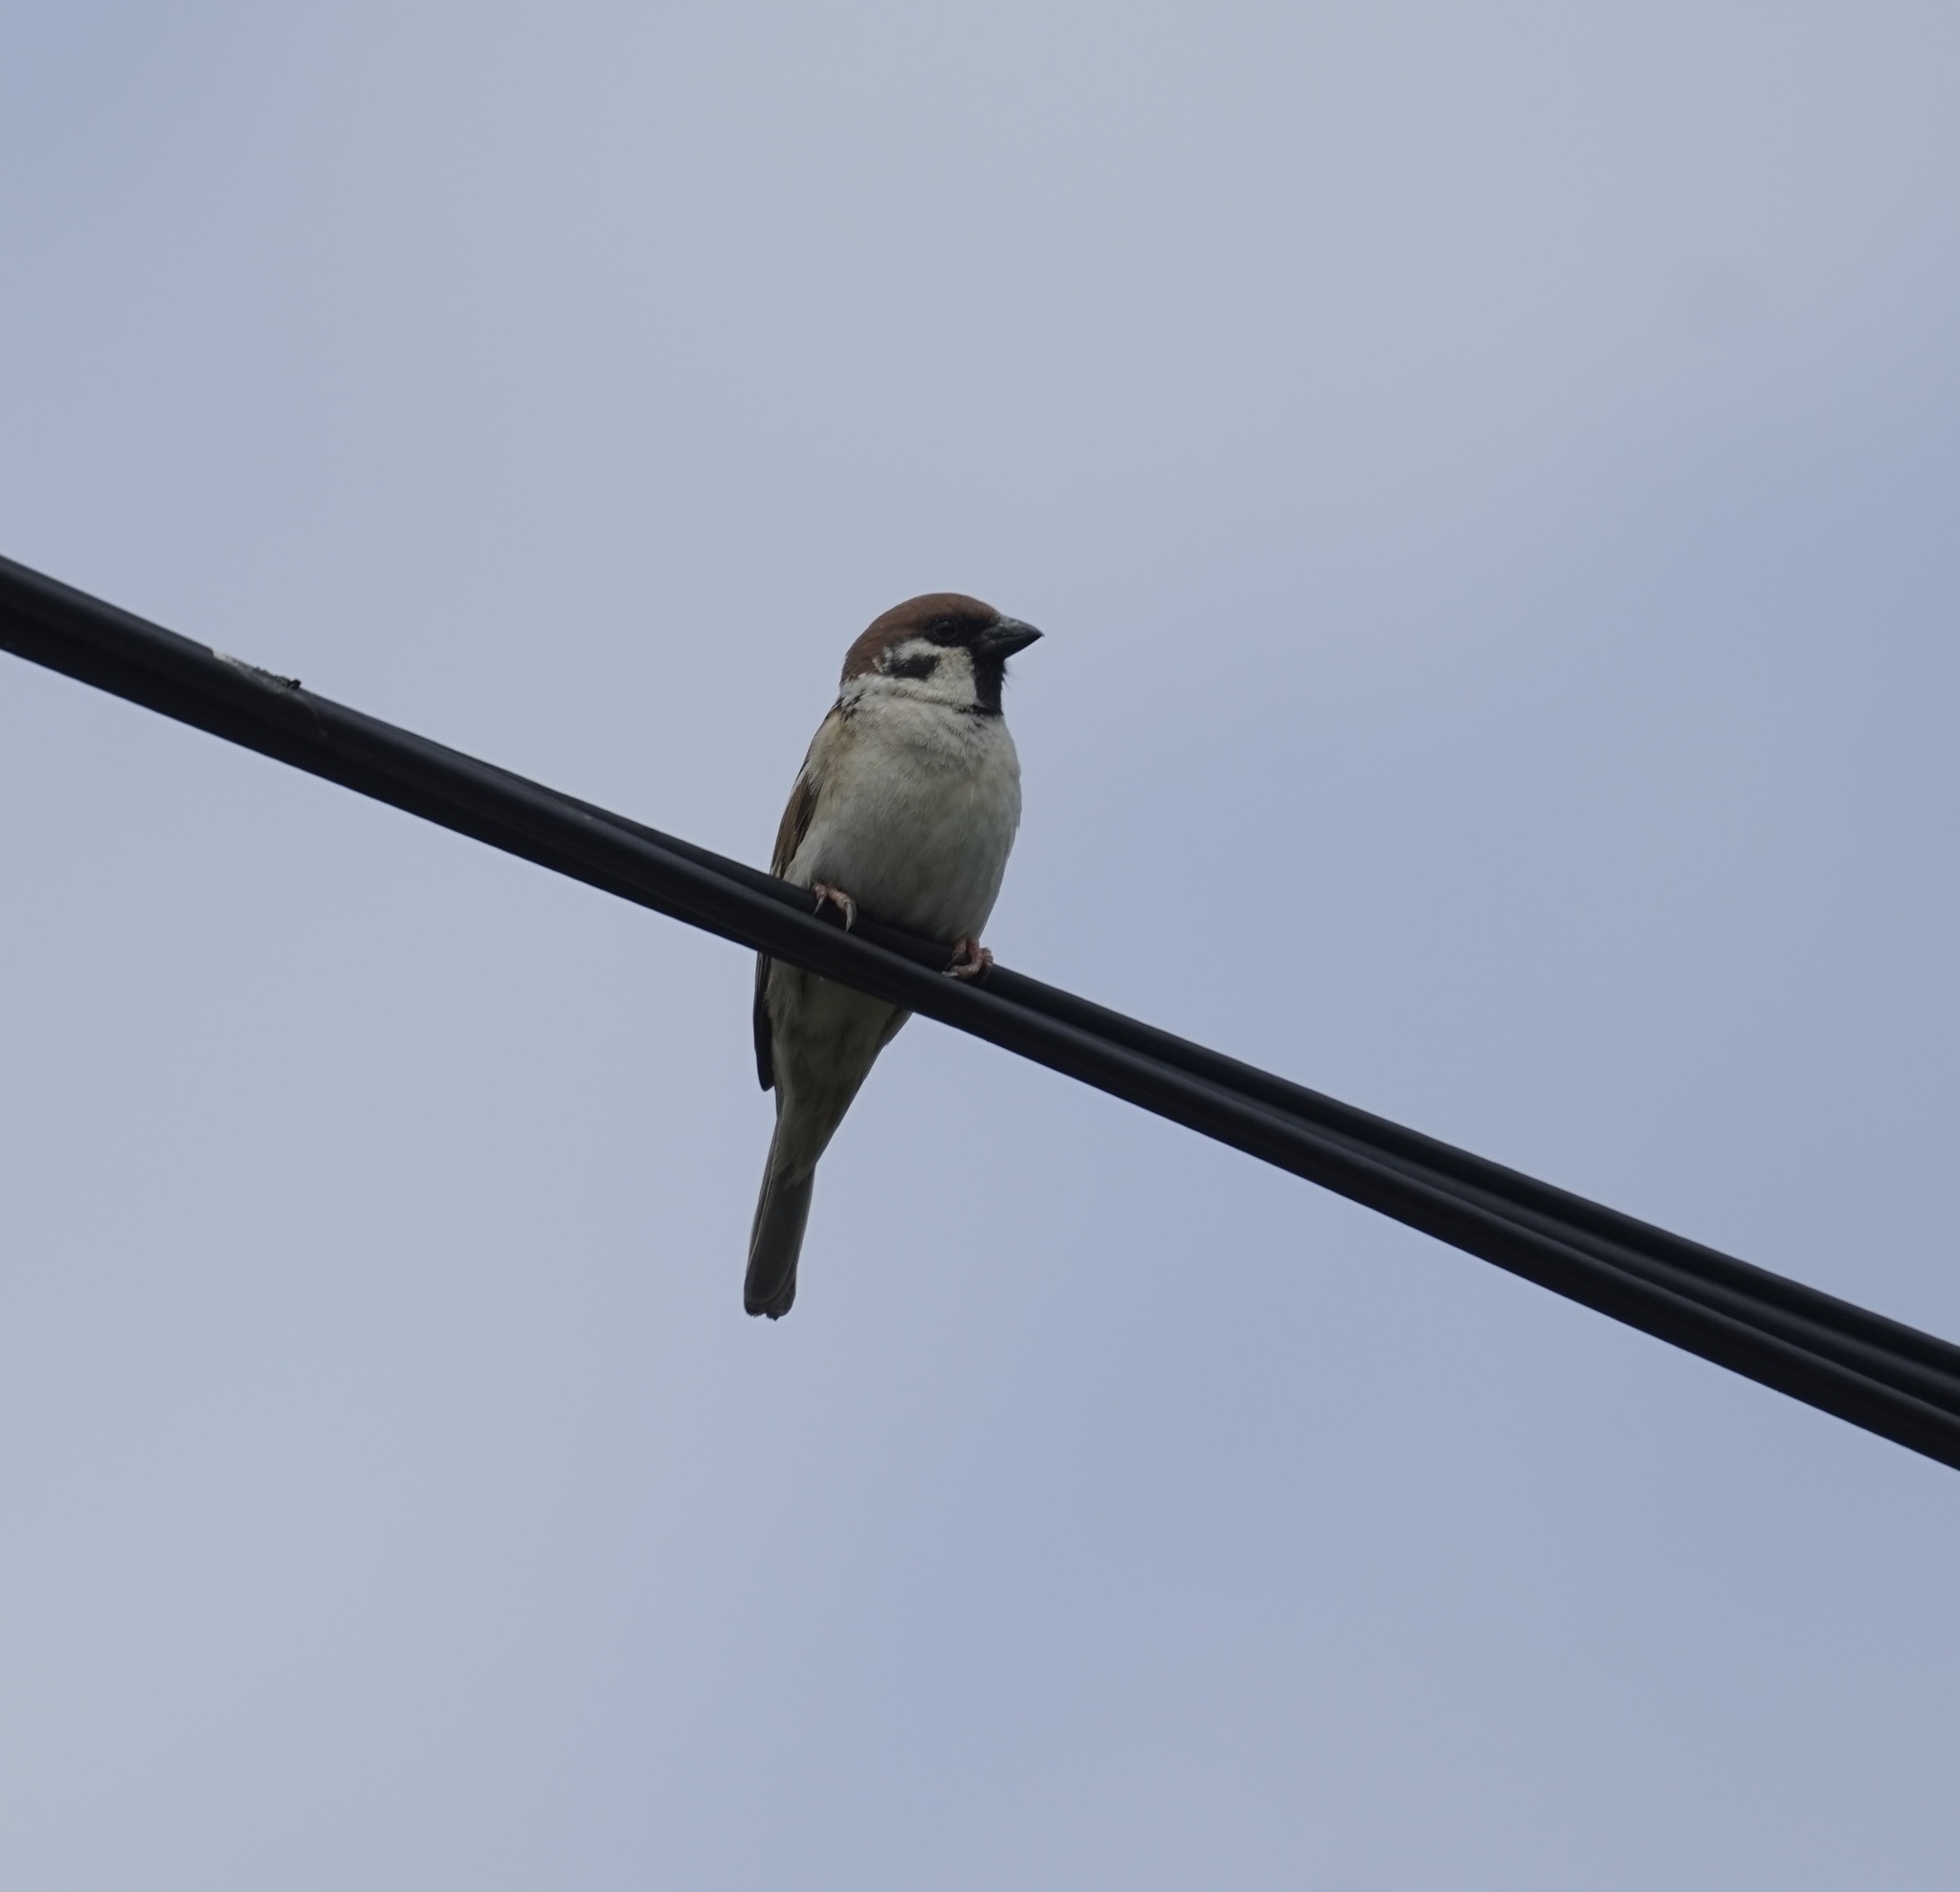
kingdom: Animalia
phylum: Chordata
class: Aves
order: Passeriformes
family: Passeridae
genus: Passer
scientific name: Passer montanus
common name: Eurasian tree sparrow
